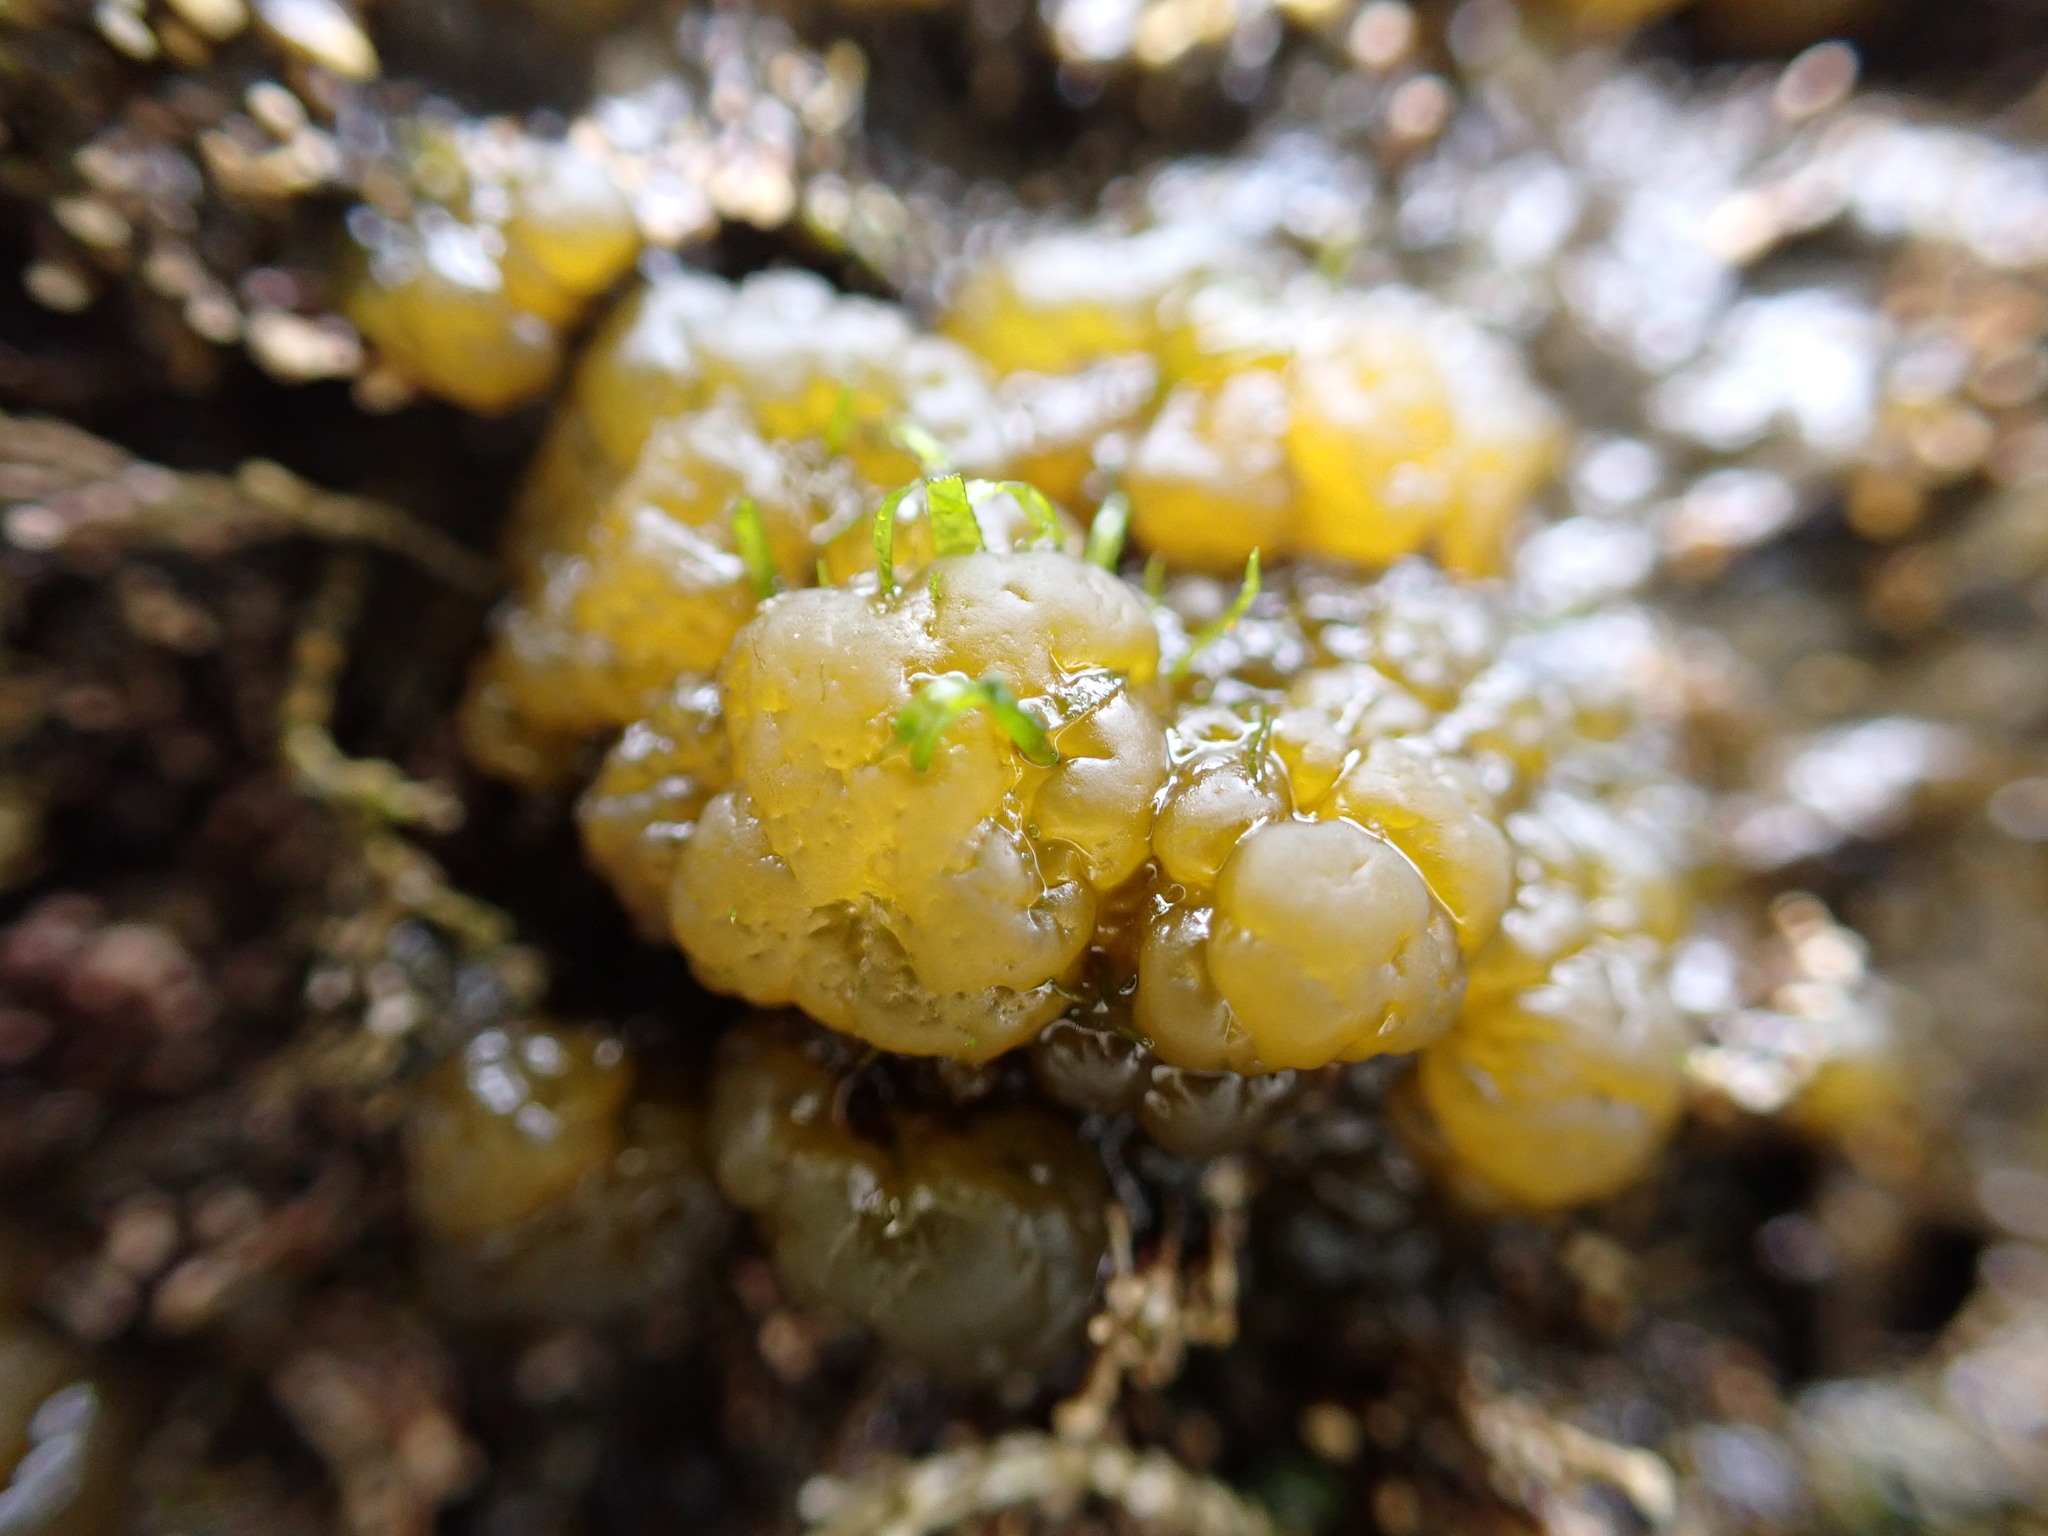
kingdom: Chromista
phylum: Ochrophyta
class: Phaeophyceae
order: Ectocarpales
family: Chordariaceae
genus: Leathesia
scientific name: Leathesia marina
